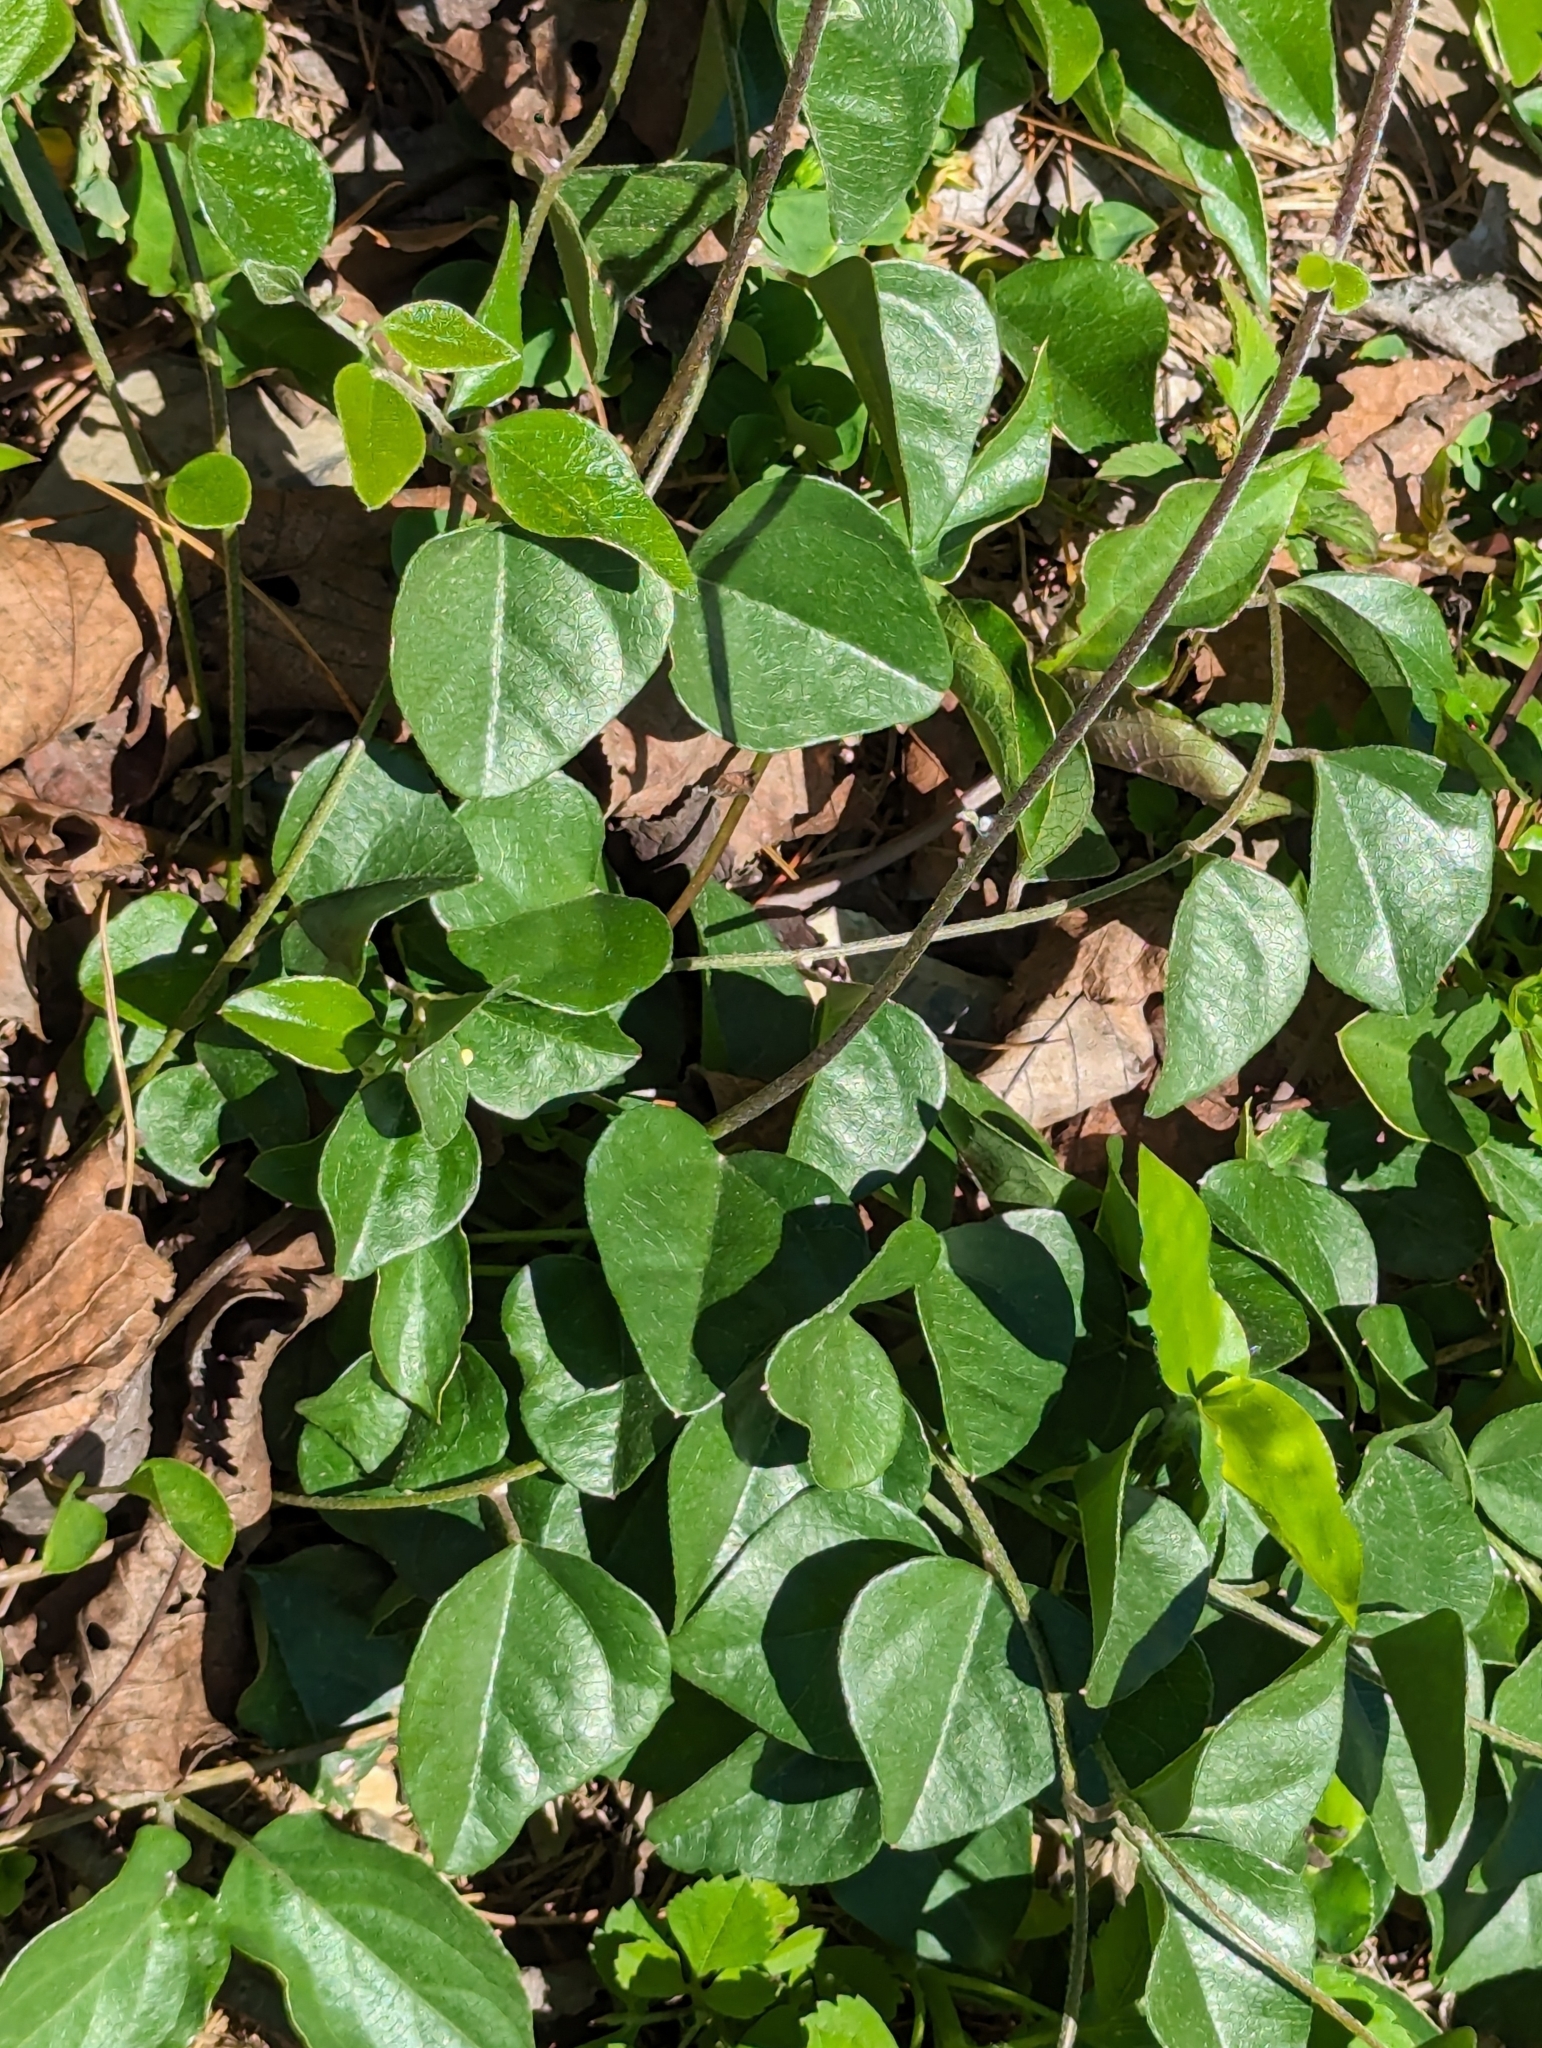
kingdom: Plantae
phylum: Tracheophyta
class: Magnoliopsida
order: Ranunculales
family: Menispermaceae
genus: Cocculus
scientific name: Cocculus orbiculatus
